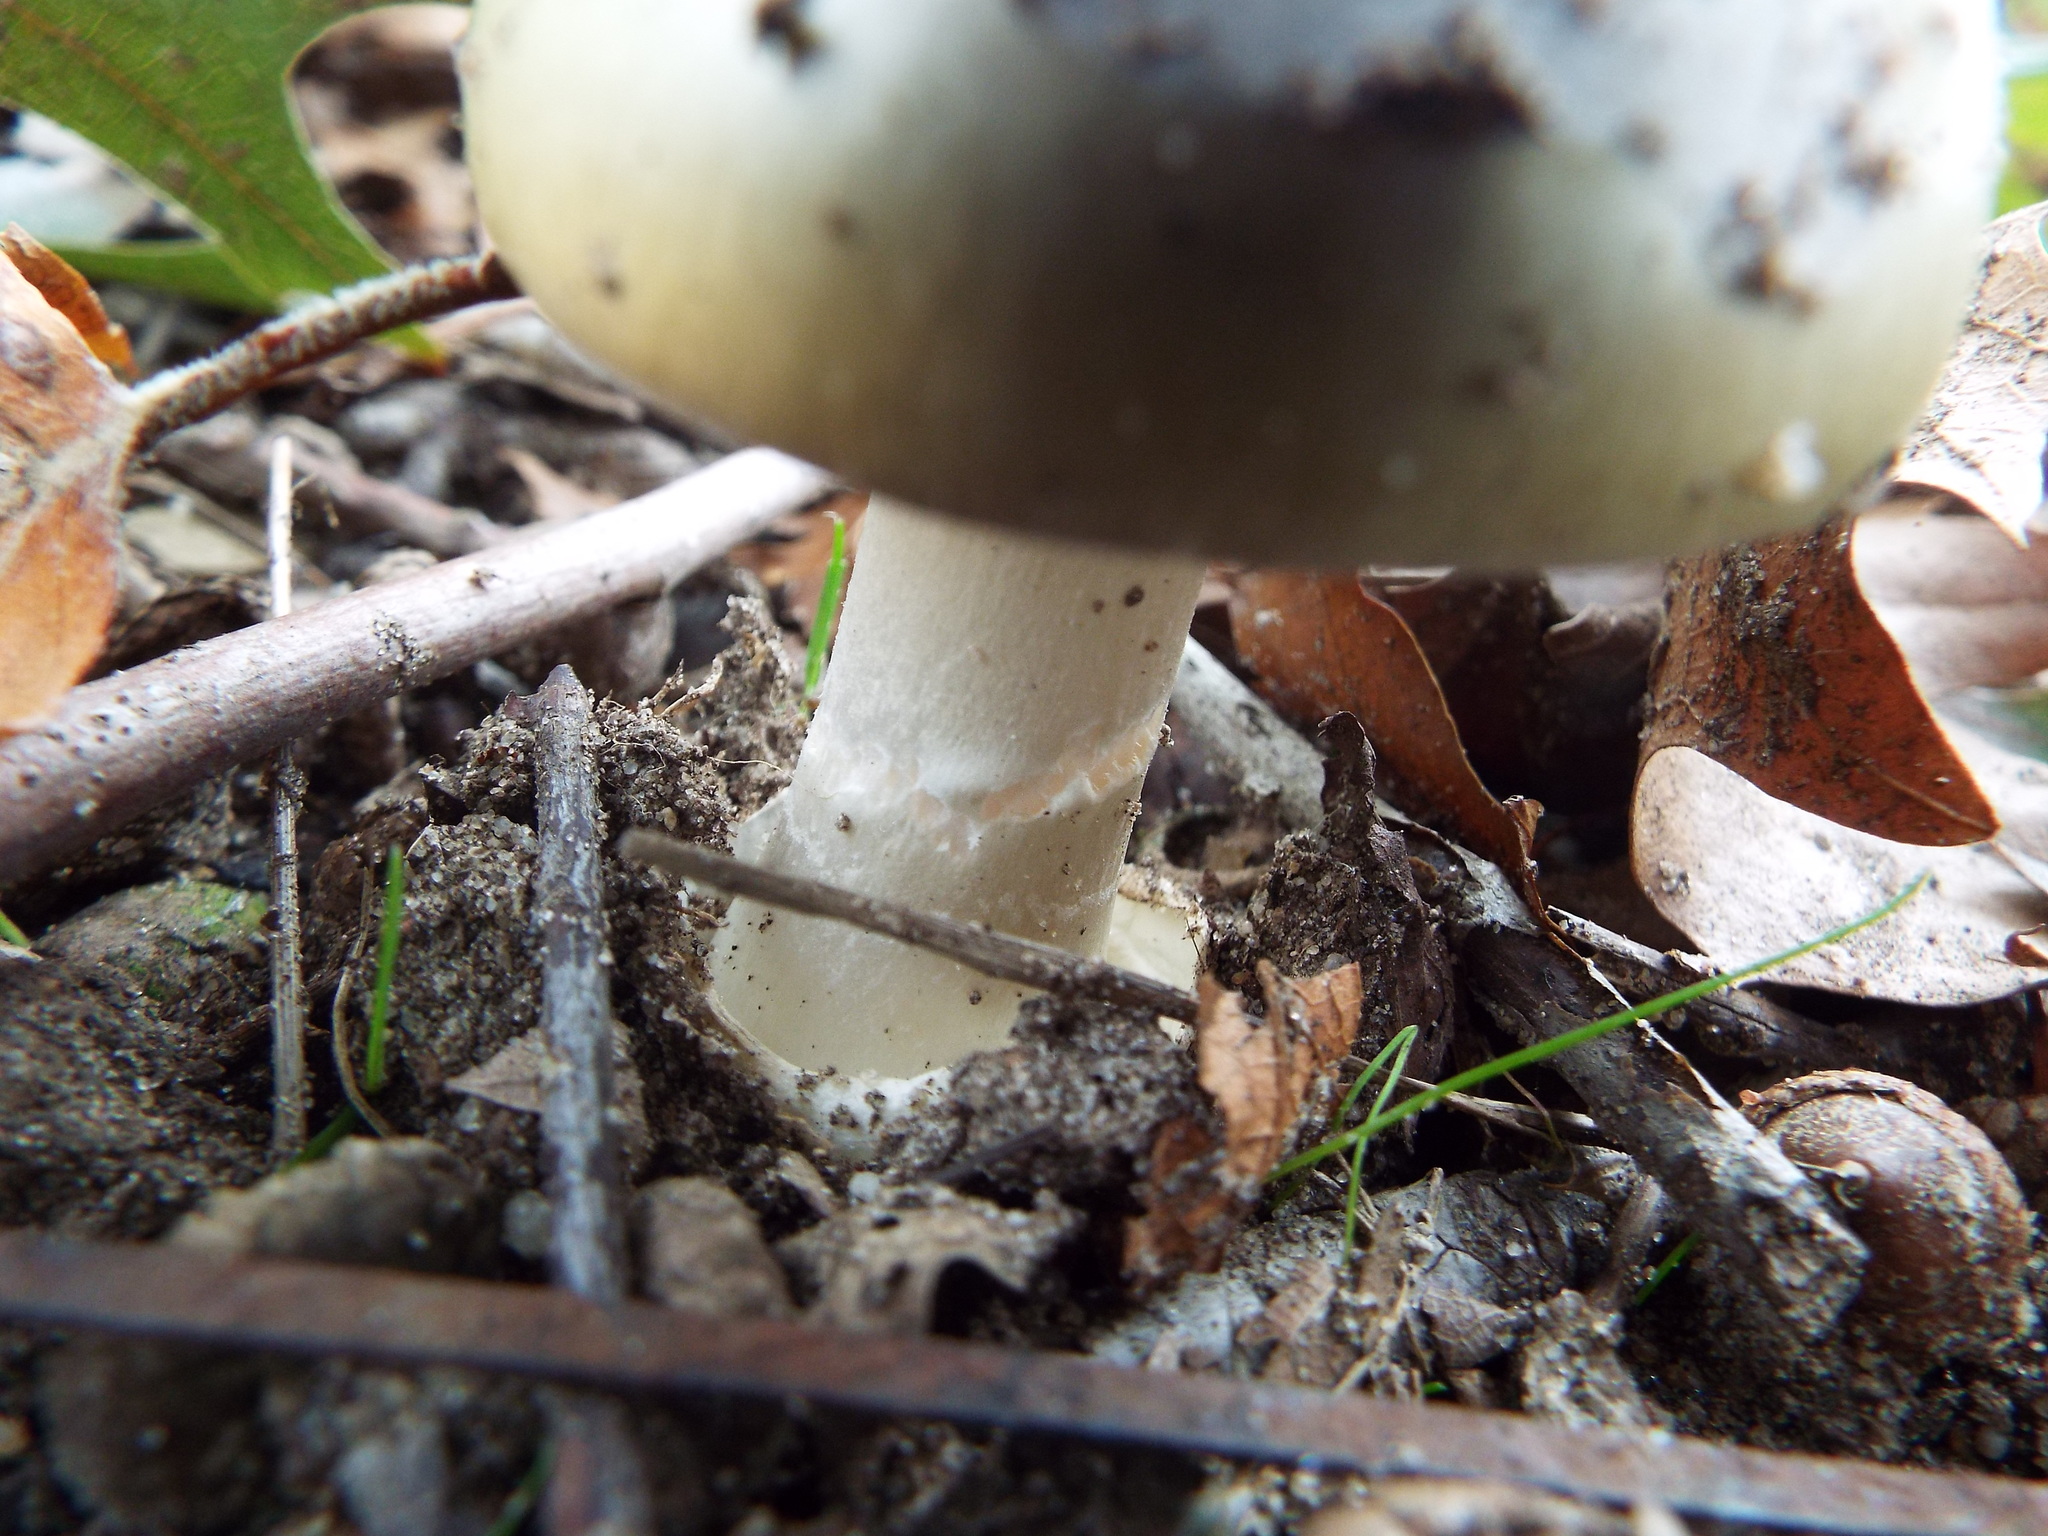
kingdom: Fungi
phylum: Basidiomycota
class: Agaricomycetes
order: Agaricales
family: Amanitaceae
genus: Amanita
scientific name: Amanita phalloides
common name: Death cap
